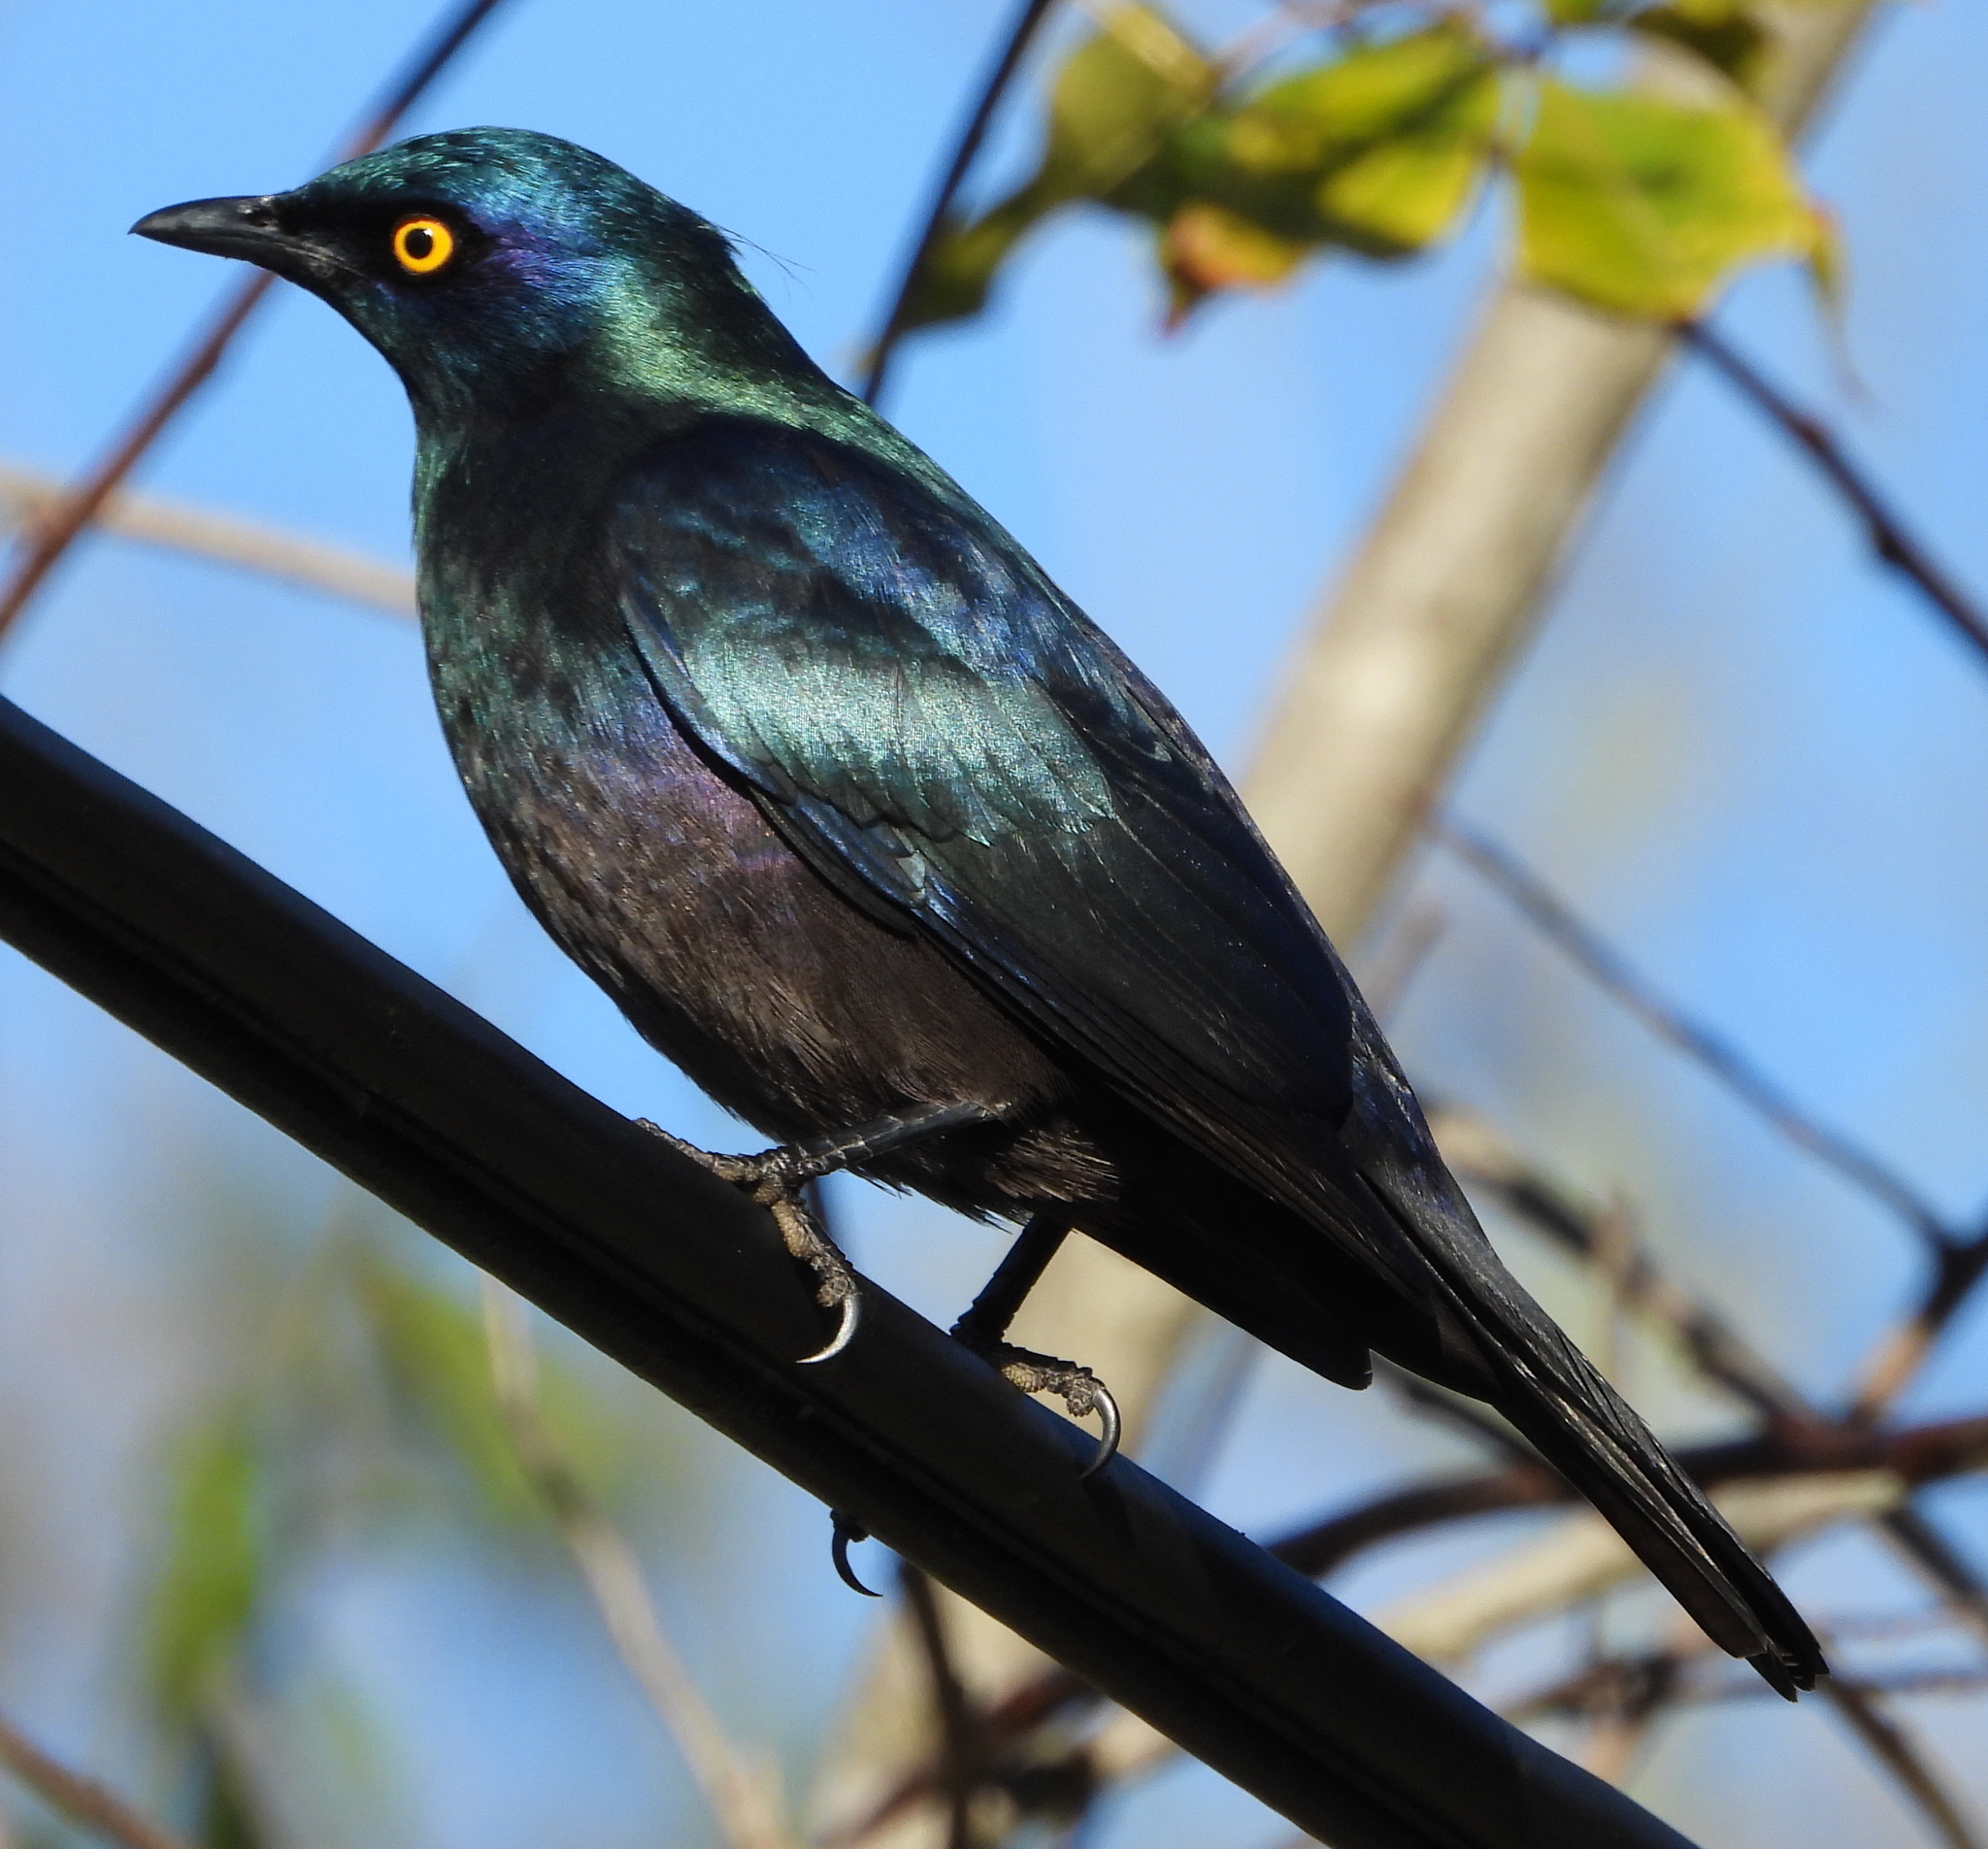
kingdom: Animalia
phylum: Chordata
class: Aves
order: Passeriformes
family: Sturnidae
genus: Notopholia
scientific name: Notopholia corrusca
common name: Black-bellied starling
